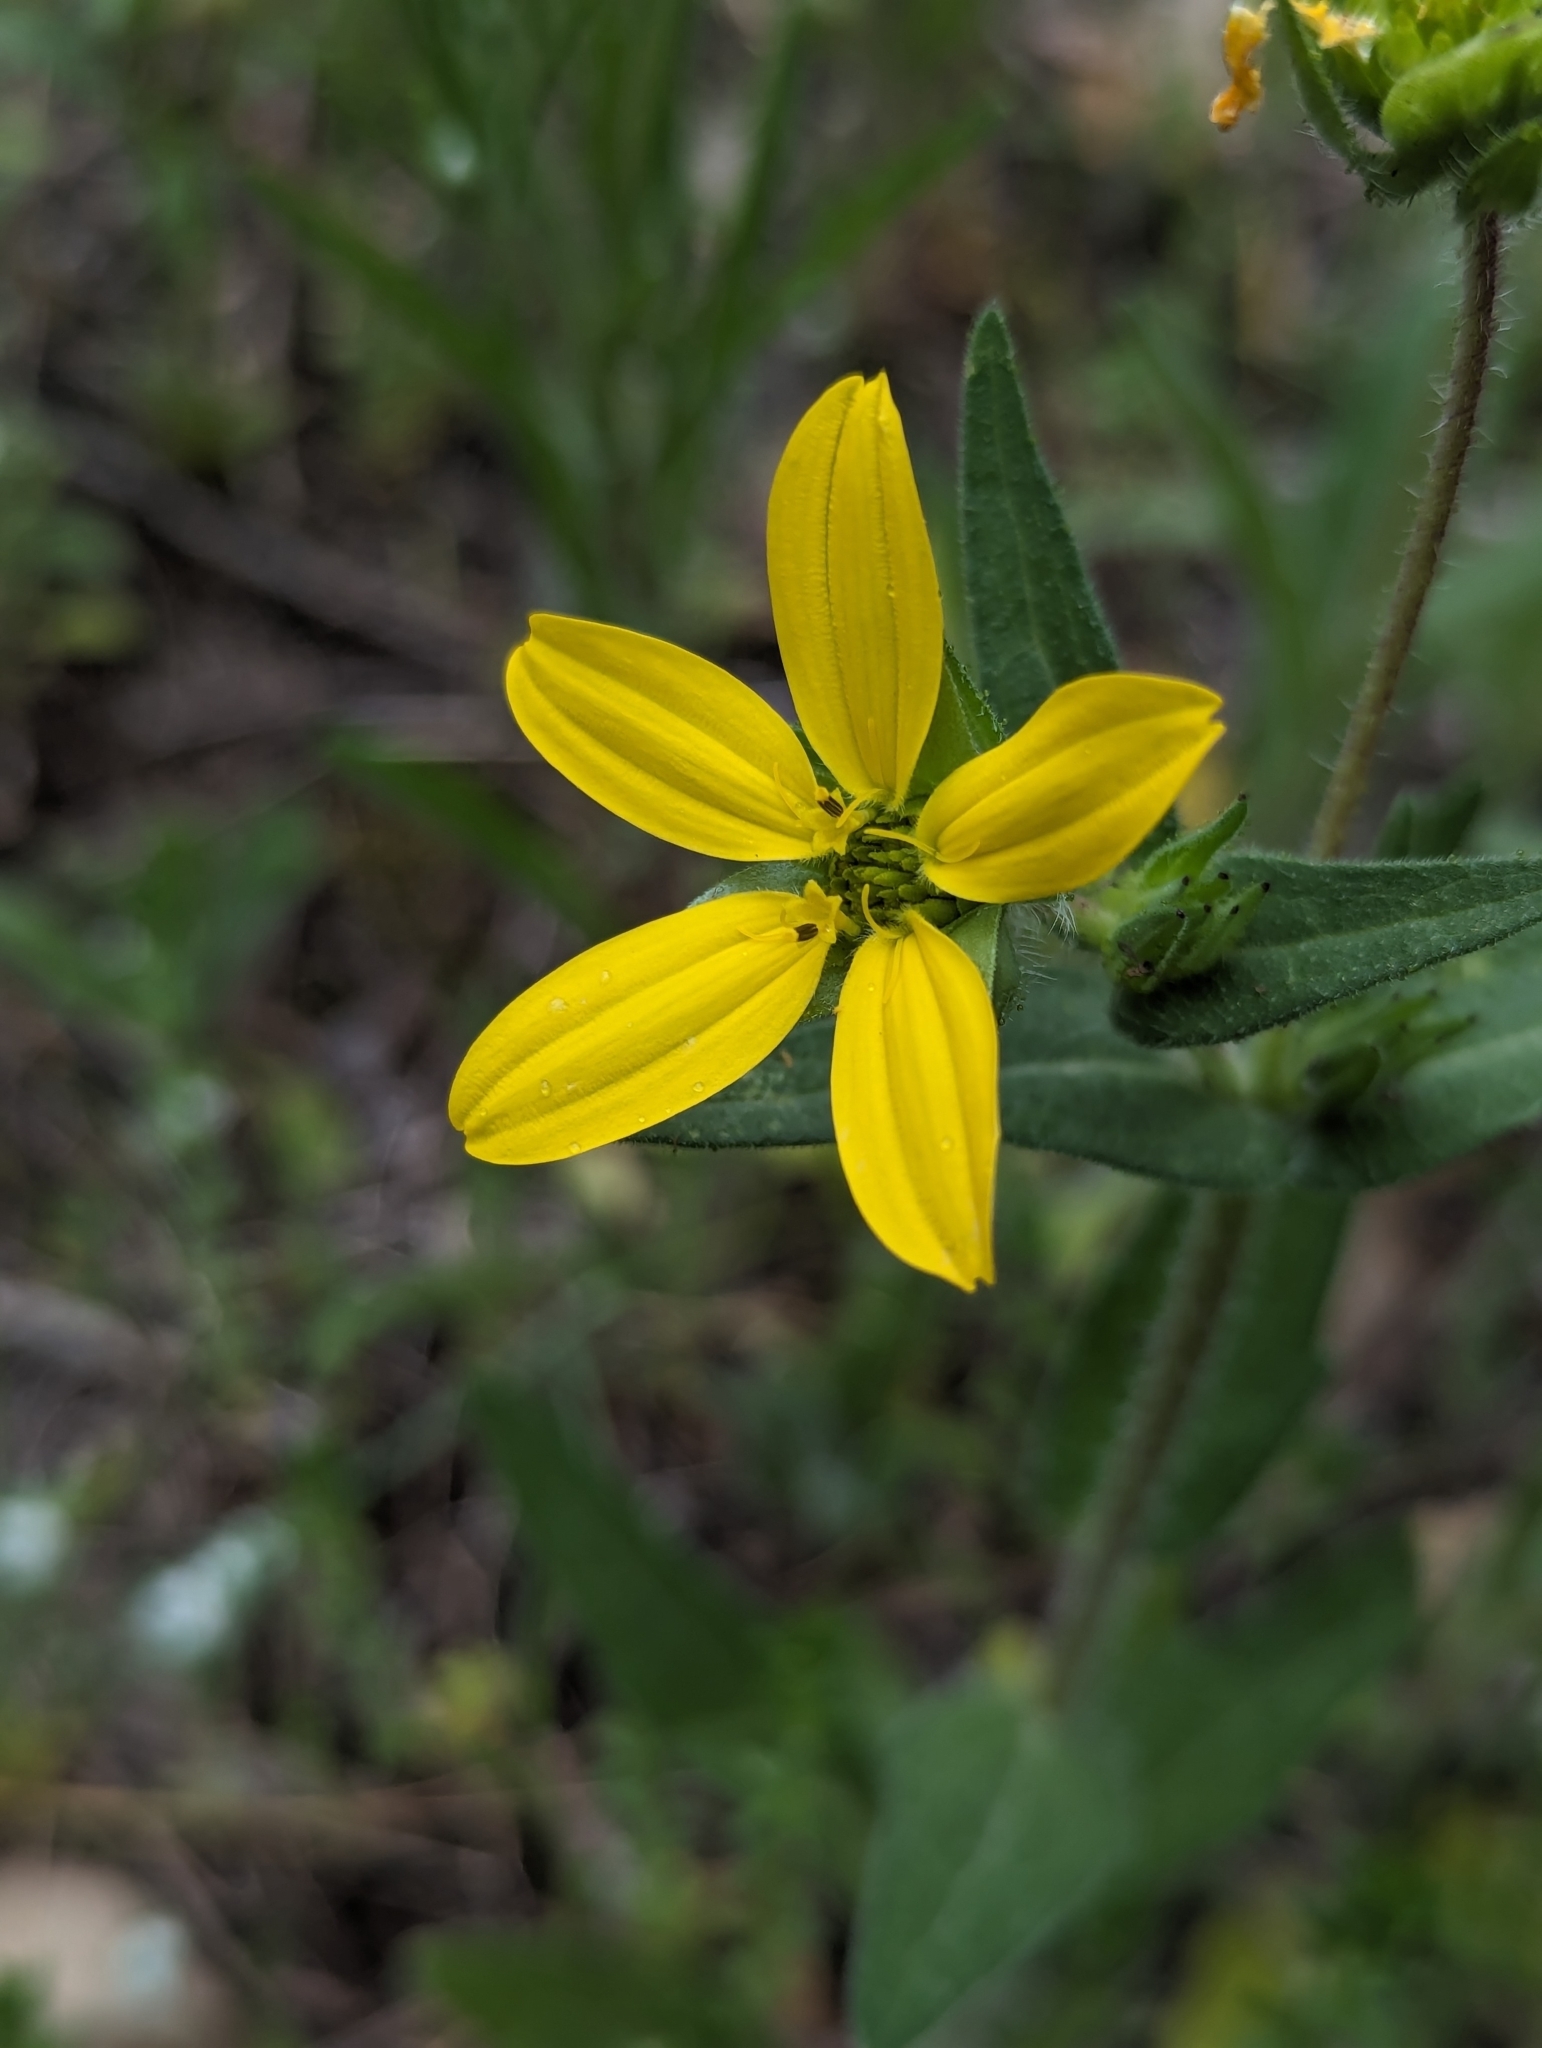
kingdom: Plantae
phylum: Tracheophyta
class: Magnoliopsida
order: Asterales
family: Asteraceae
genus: Lindheimera
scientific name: Lindheimera texana
